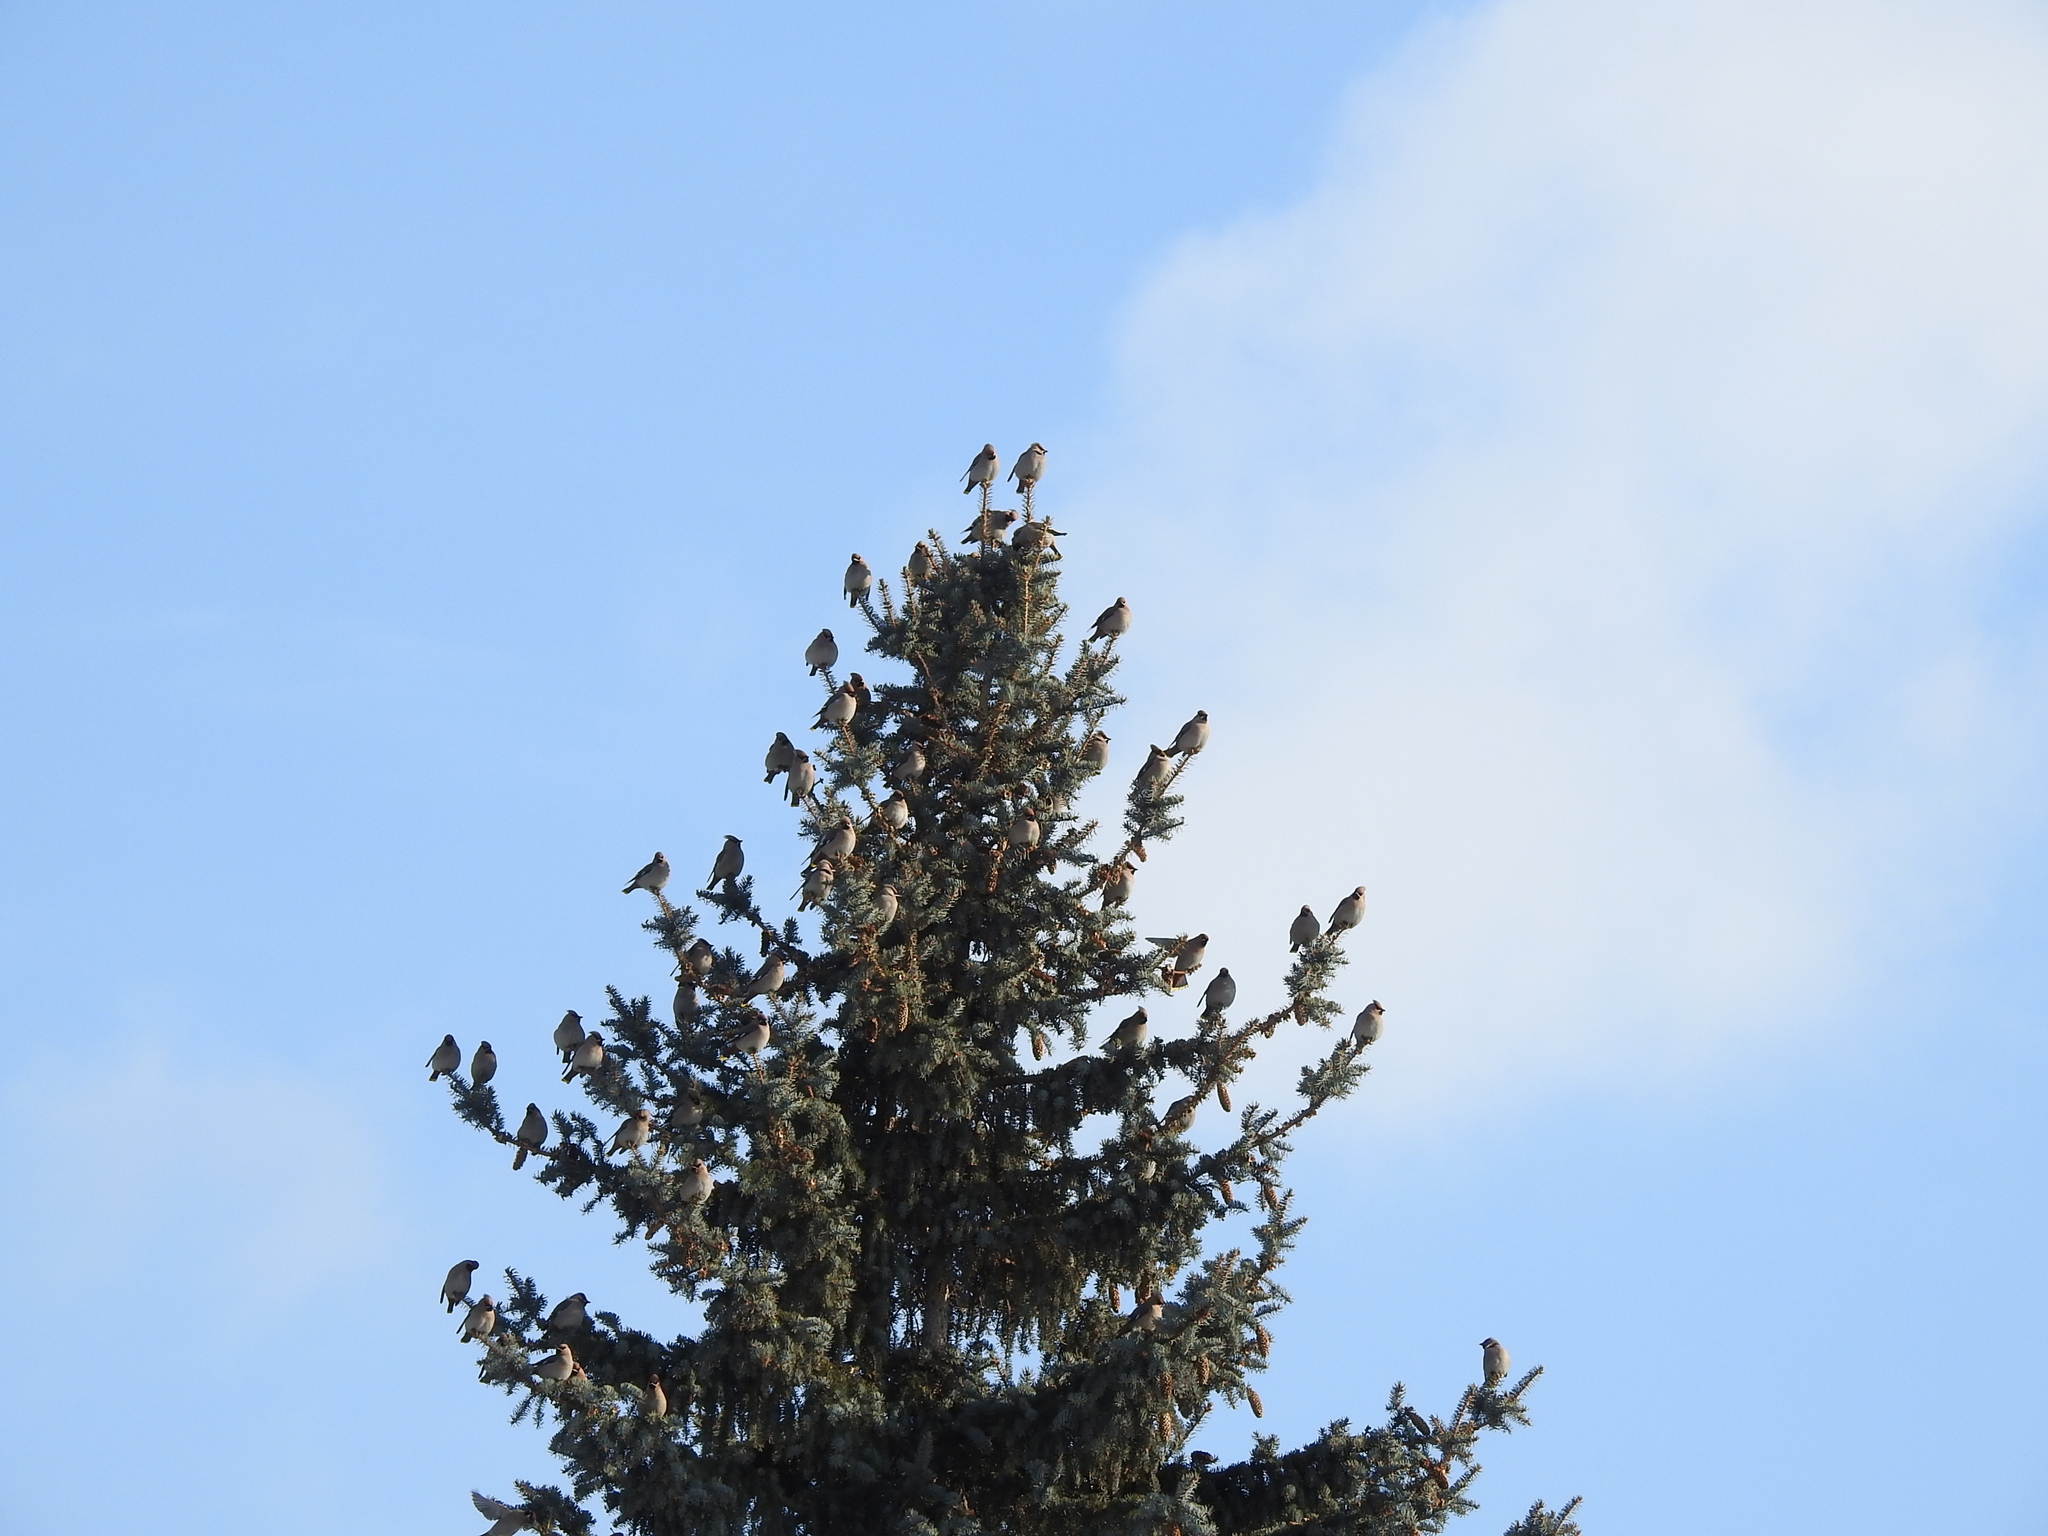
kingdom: Animalia
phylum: Chordata
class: Aves
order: Passeriformes
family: Bombycillidae
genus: Bombycilla
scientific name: Bombycilla garrulus
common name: Bohemian waxwing
